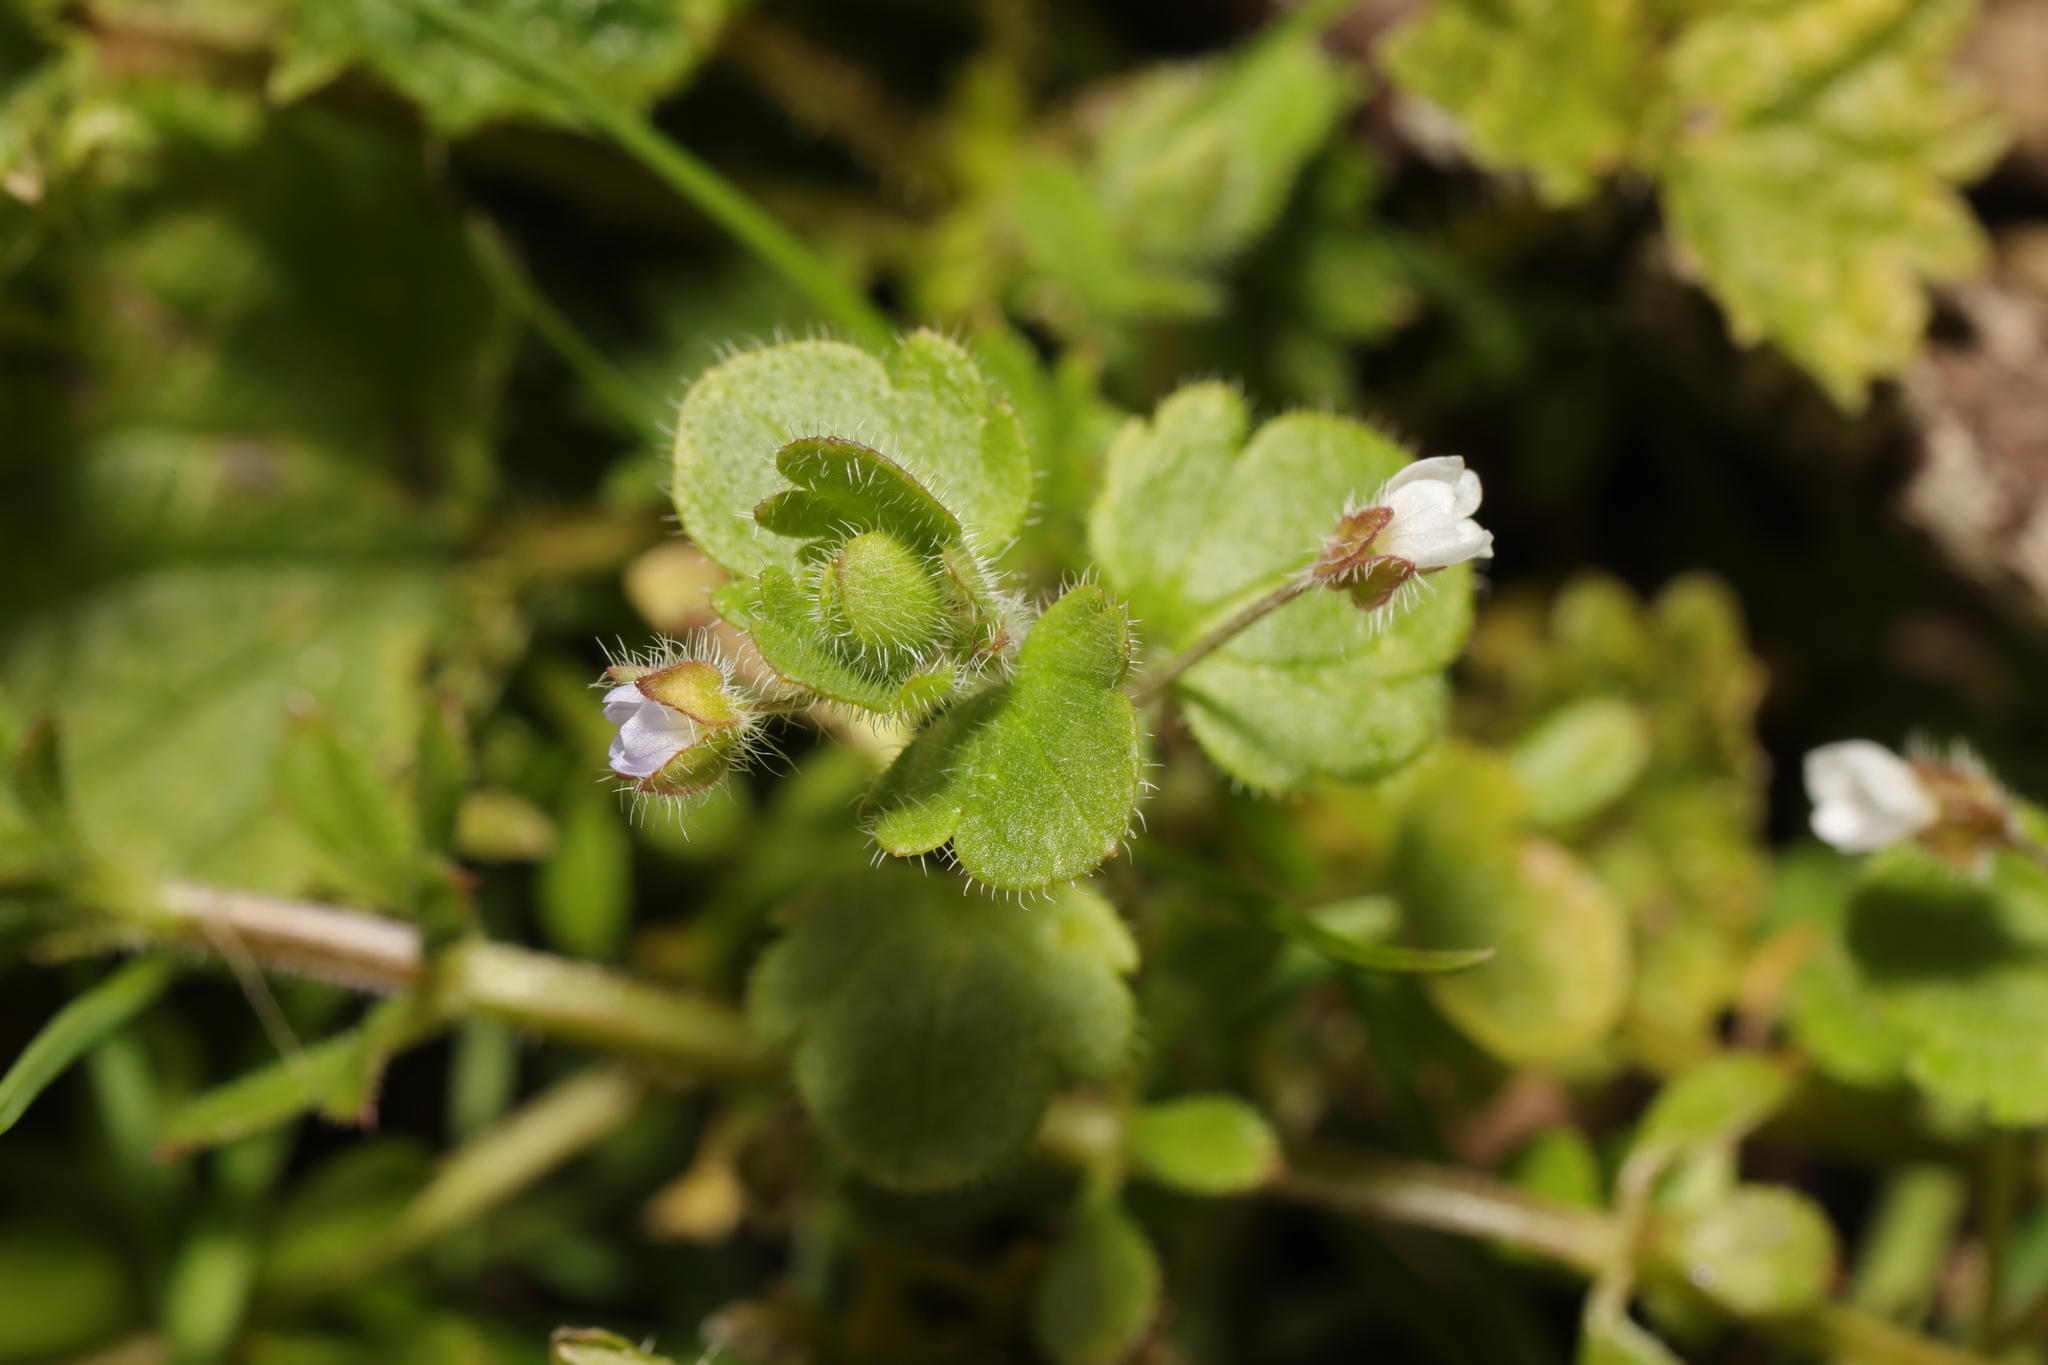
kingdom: Plantae
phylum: Tracheophyta
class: Magnoliopsida
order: Lamiales
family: Plantaginaceae
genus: Veronica
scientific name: Veronica sublobata
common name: False ivy-leaved speedwell
